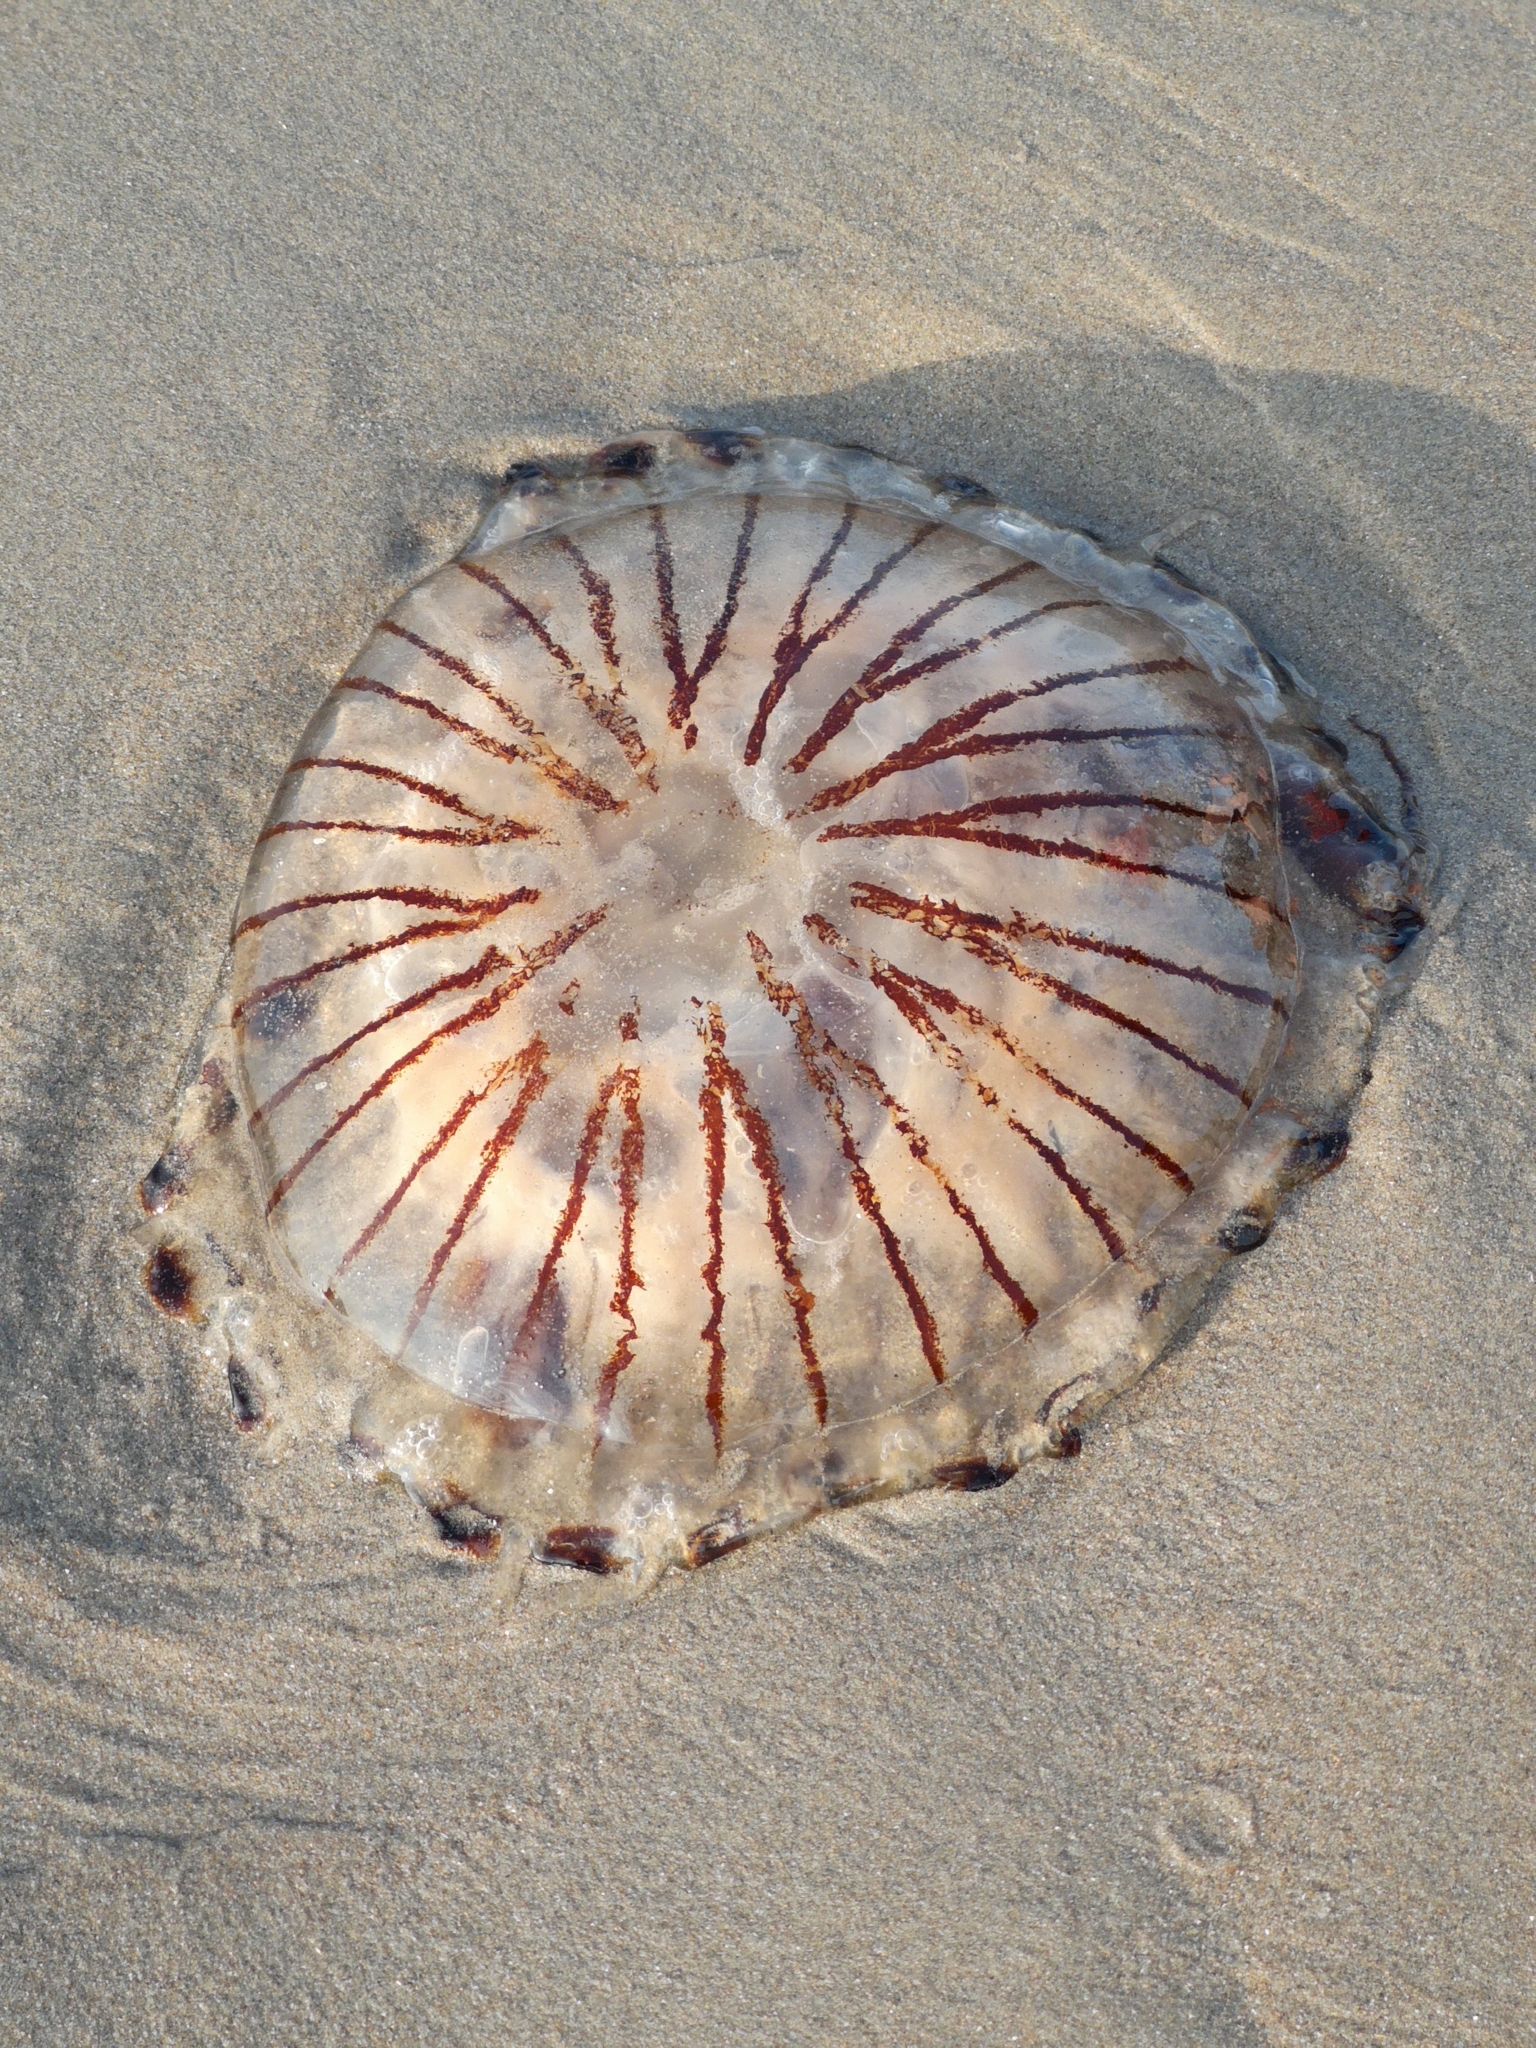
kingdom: Animalia
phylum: Cnidaria
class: Scyphozoa
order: Semaeostomeae
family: Pelagiidae
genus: Chrysaora
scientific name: Chrysaora hysoscella
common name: Compass jellyfish
